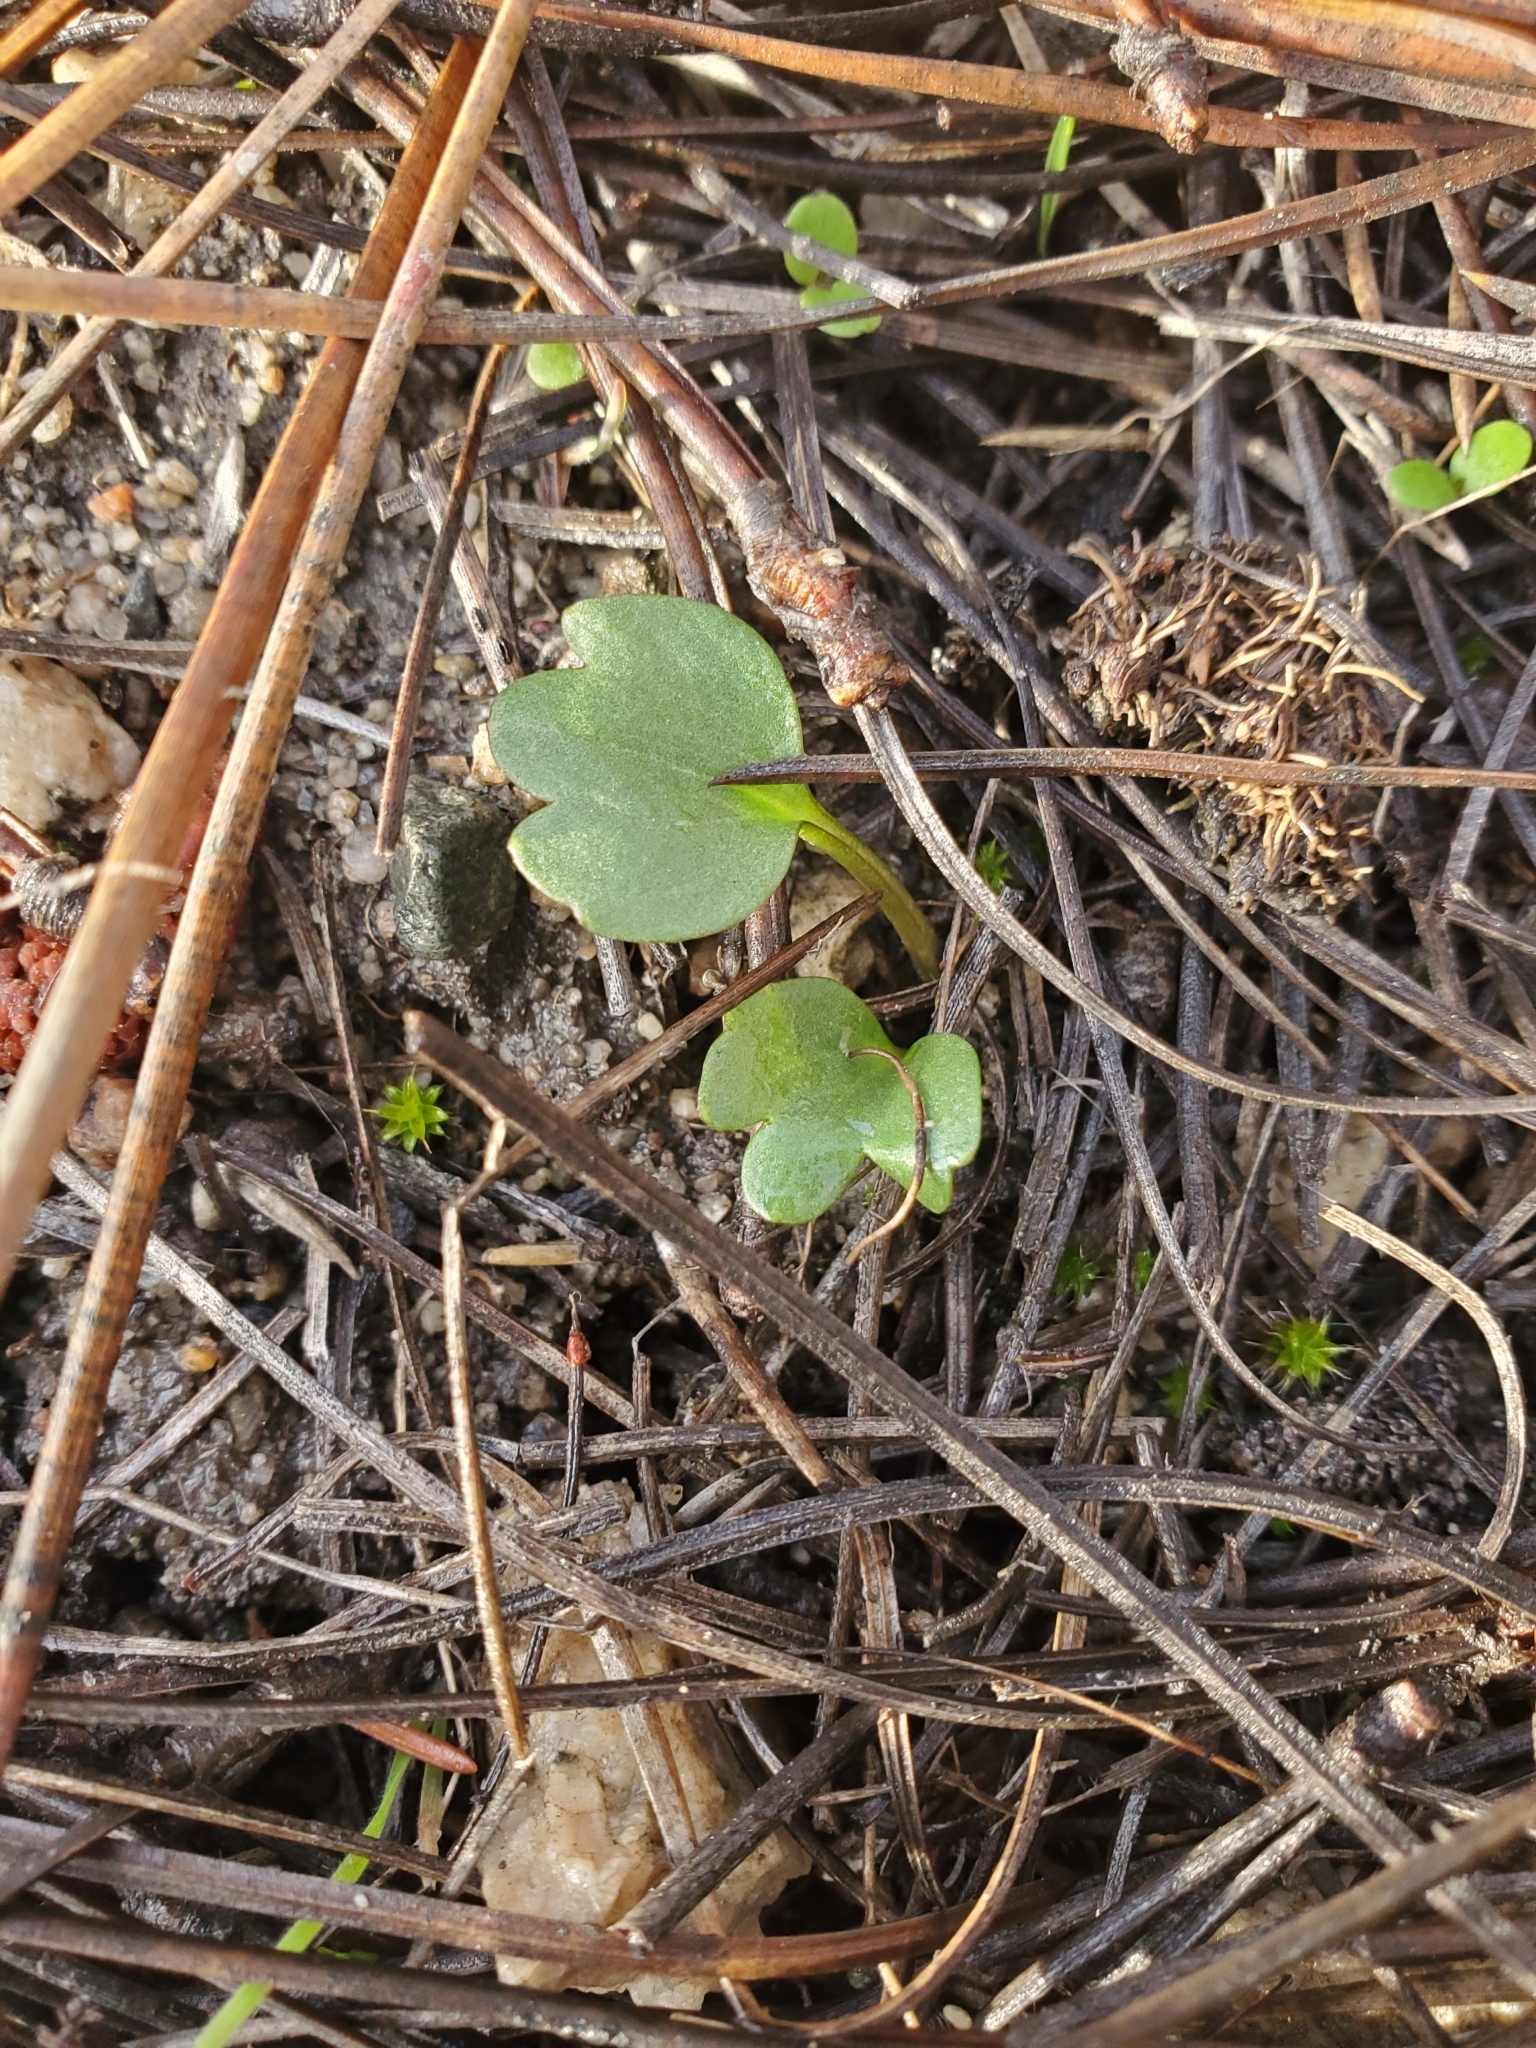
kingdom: Plantae
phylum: Tracheophyta
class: Magnoliopsida
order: Ranunculales
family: Ranunculaceae
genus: Ranunculus
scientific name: Ranunculus glaberrimus
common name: Sagebrush buttercup
